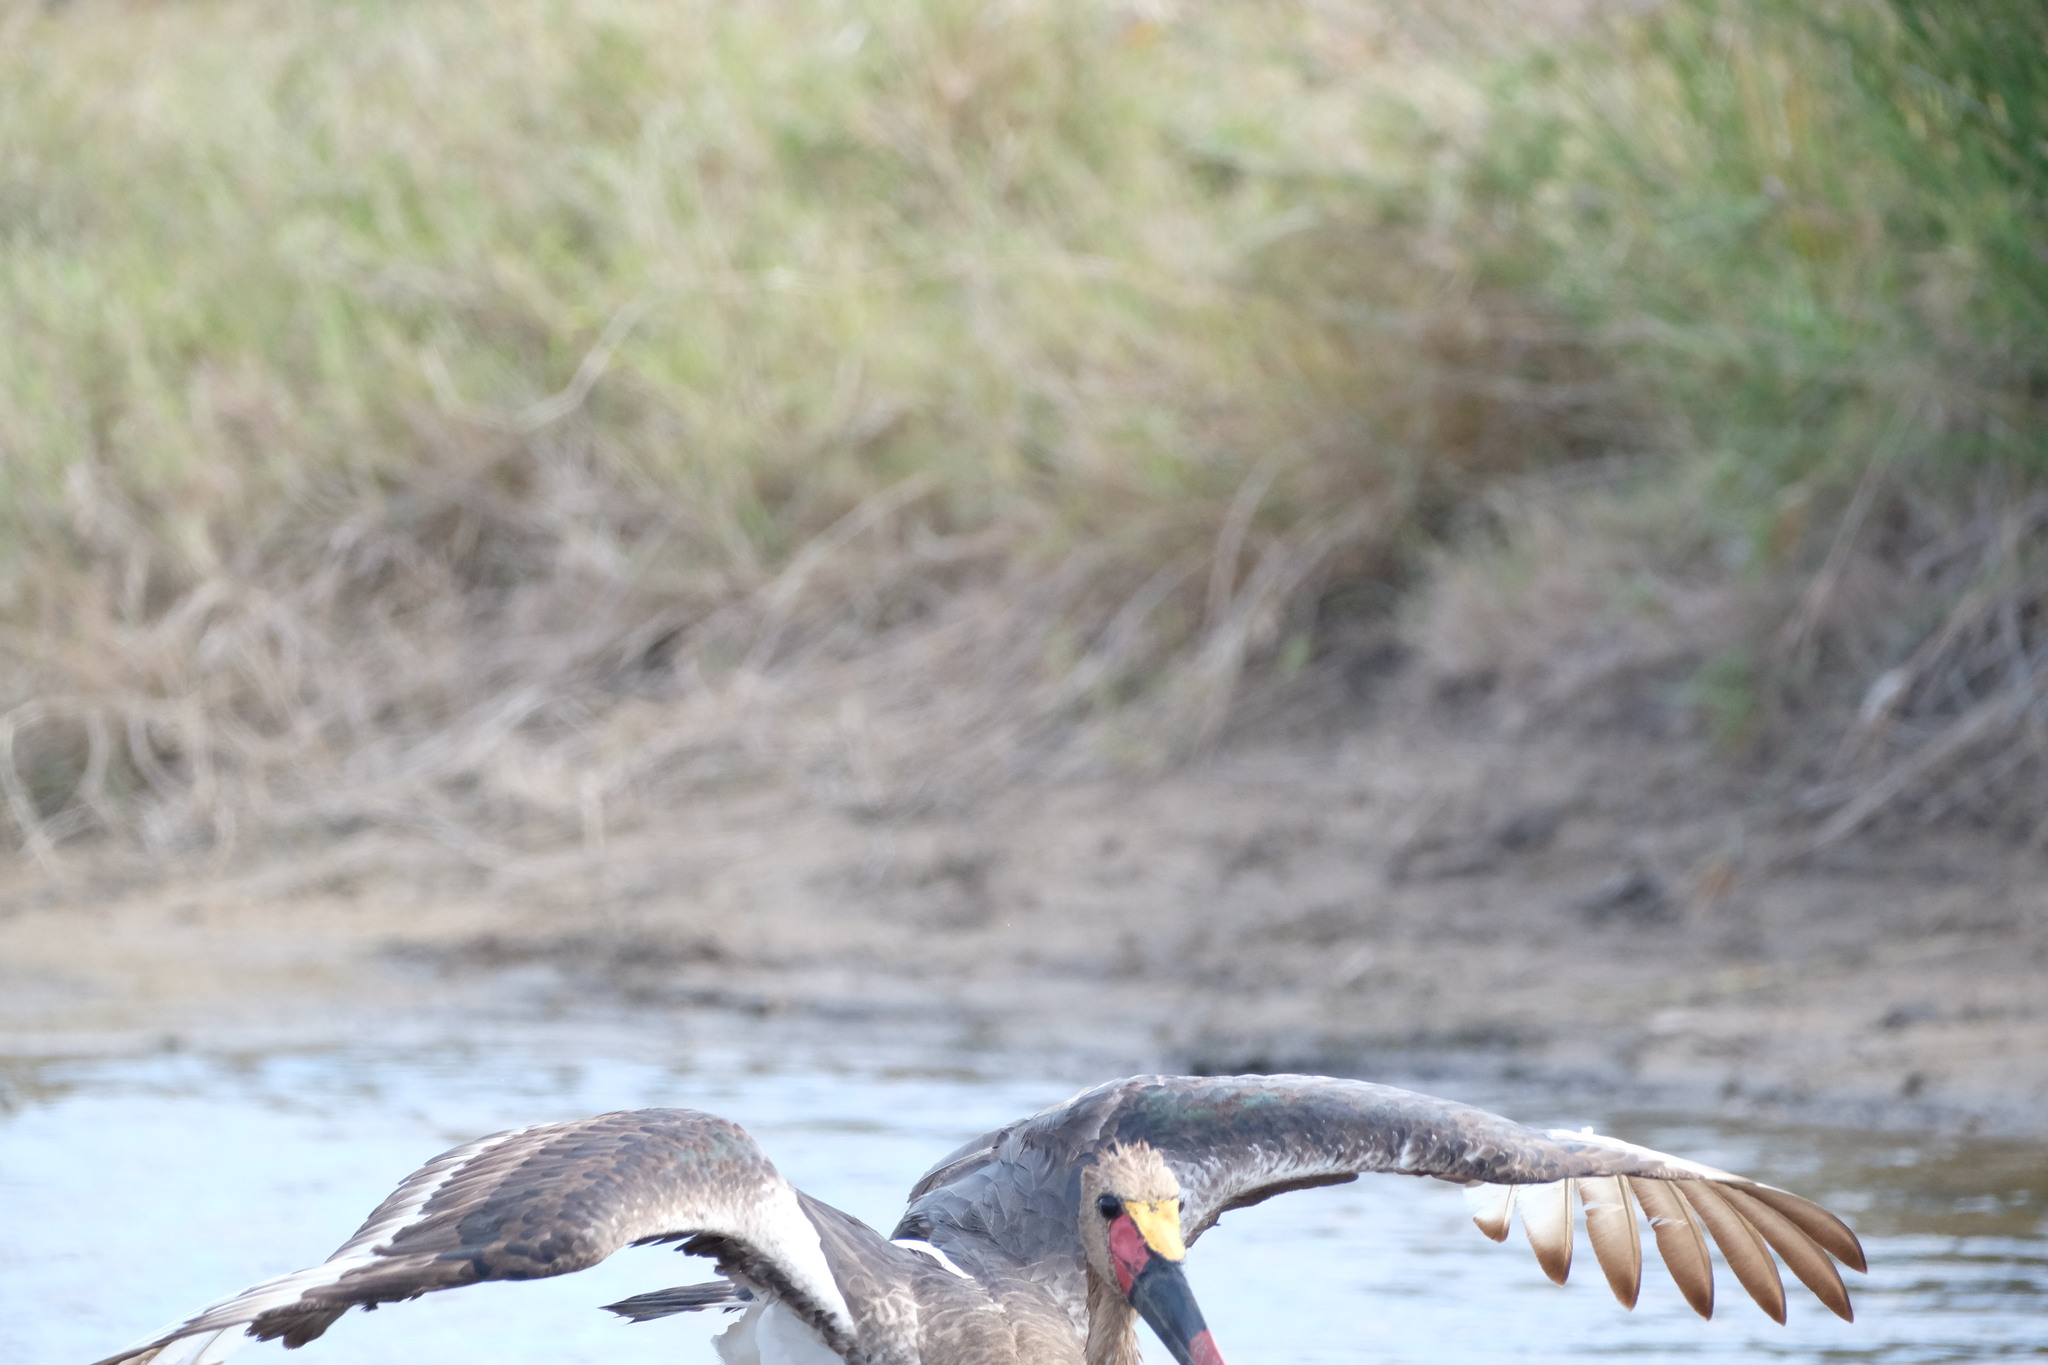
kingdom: Animalia
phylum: Chordata
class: Aves
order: Ciconiiformes
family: Ciconiidae
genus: Ephippiorhynchus
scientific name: Ephippiorhynchus senegalensis
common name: Saddle-billed stork
